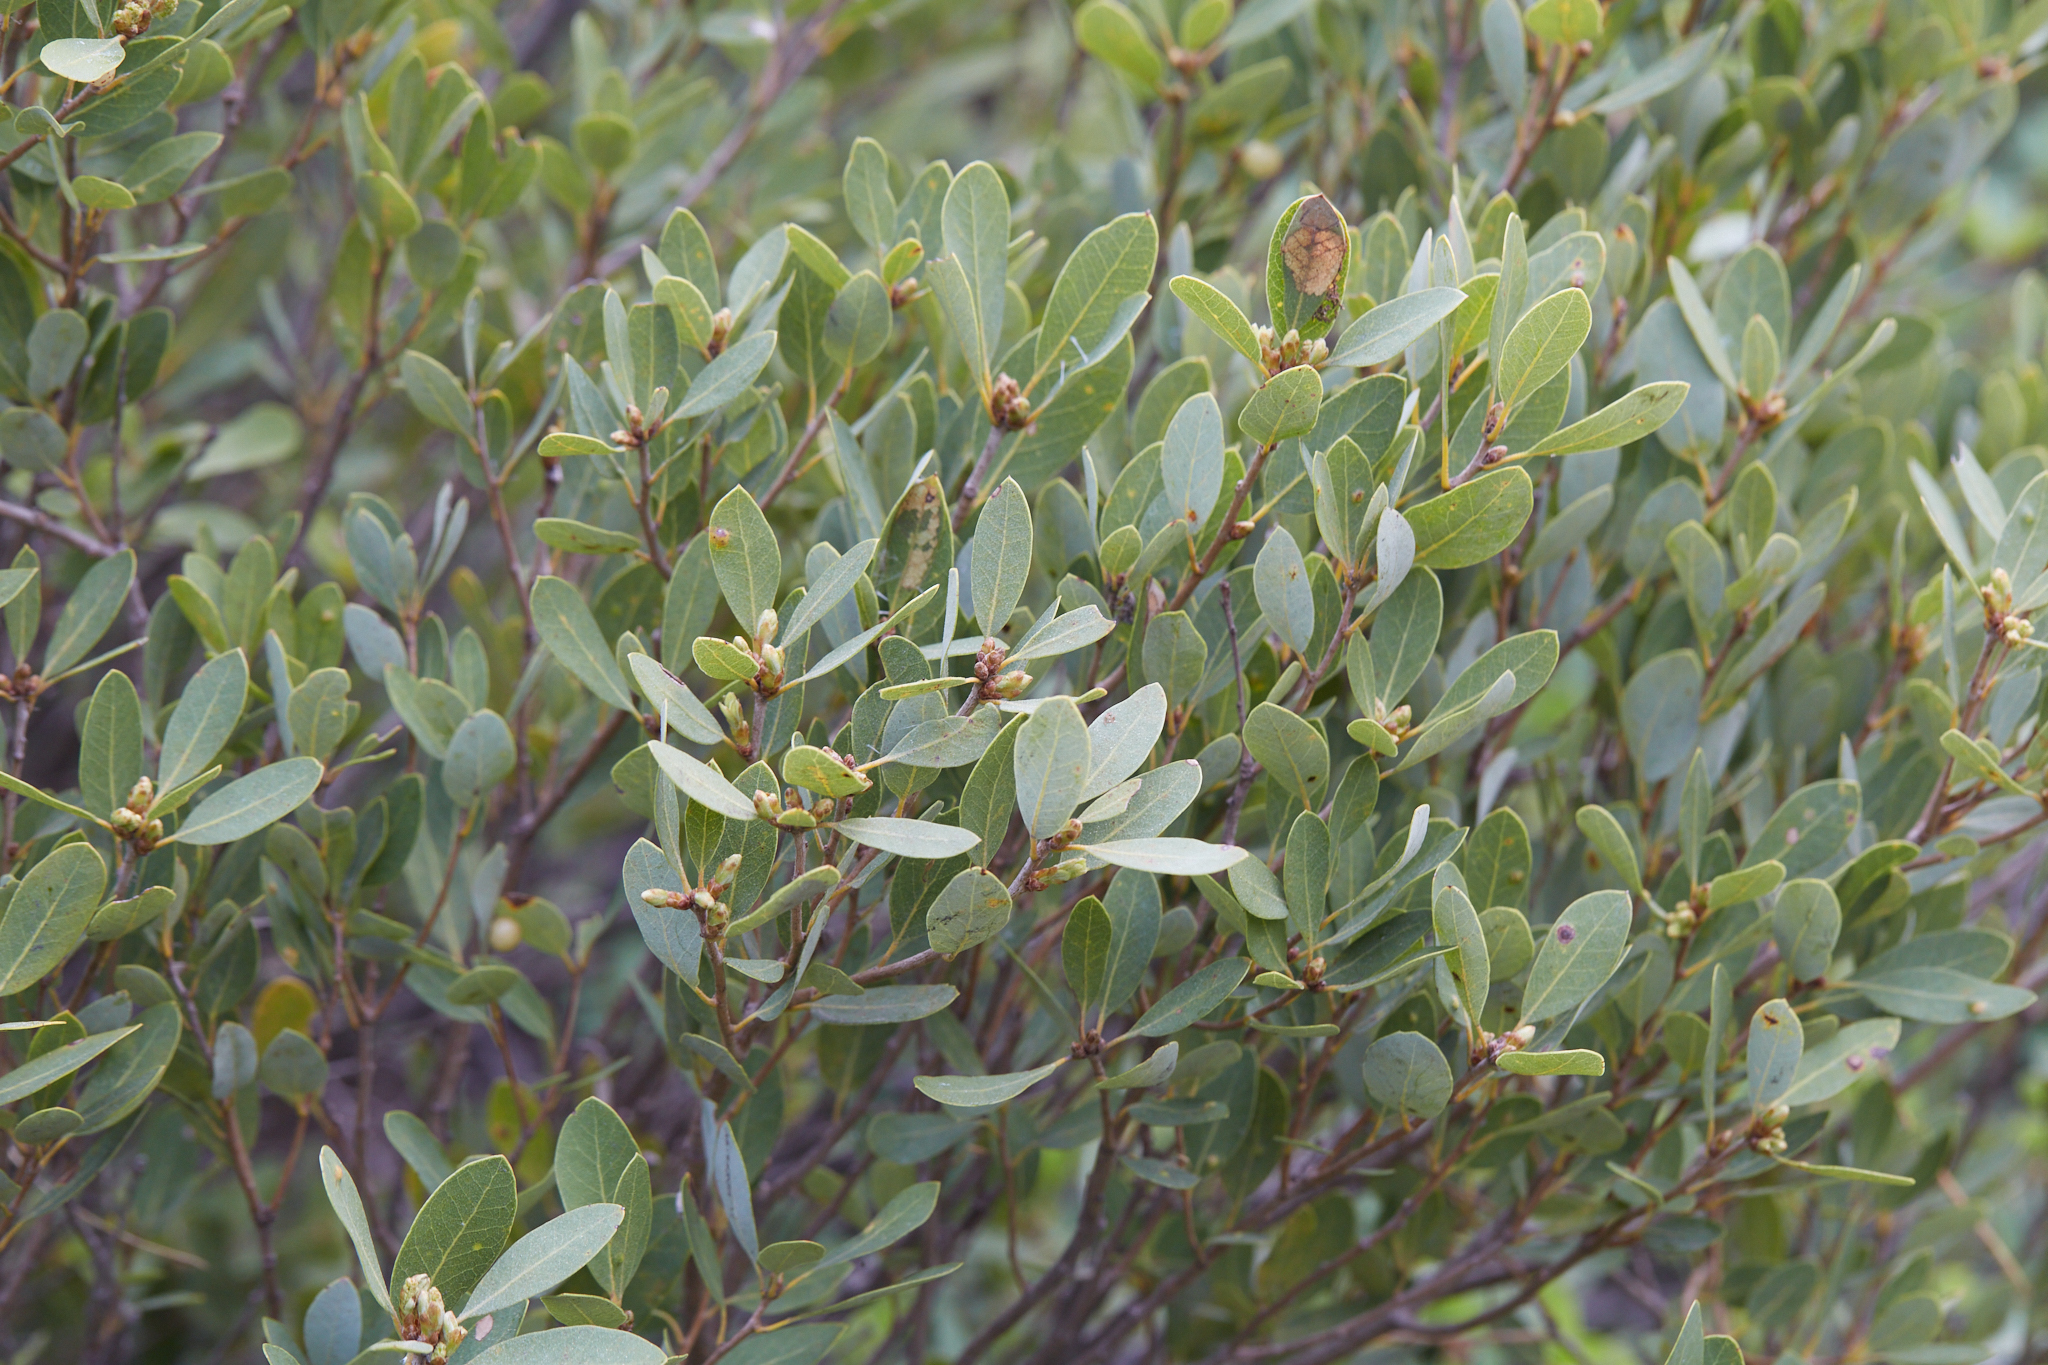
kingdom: Plantae
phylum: Tracheophyta
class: Magnoliopsida
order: Fagales
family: Fagaceae
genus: Quercus
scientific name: Quercus vacciniifolia
